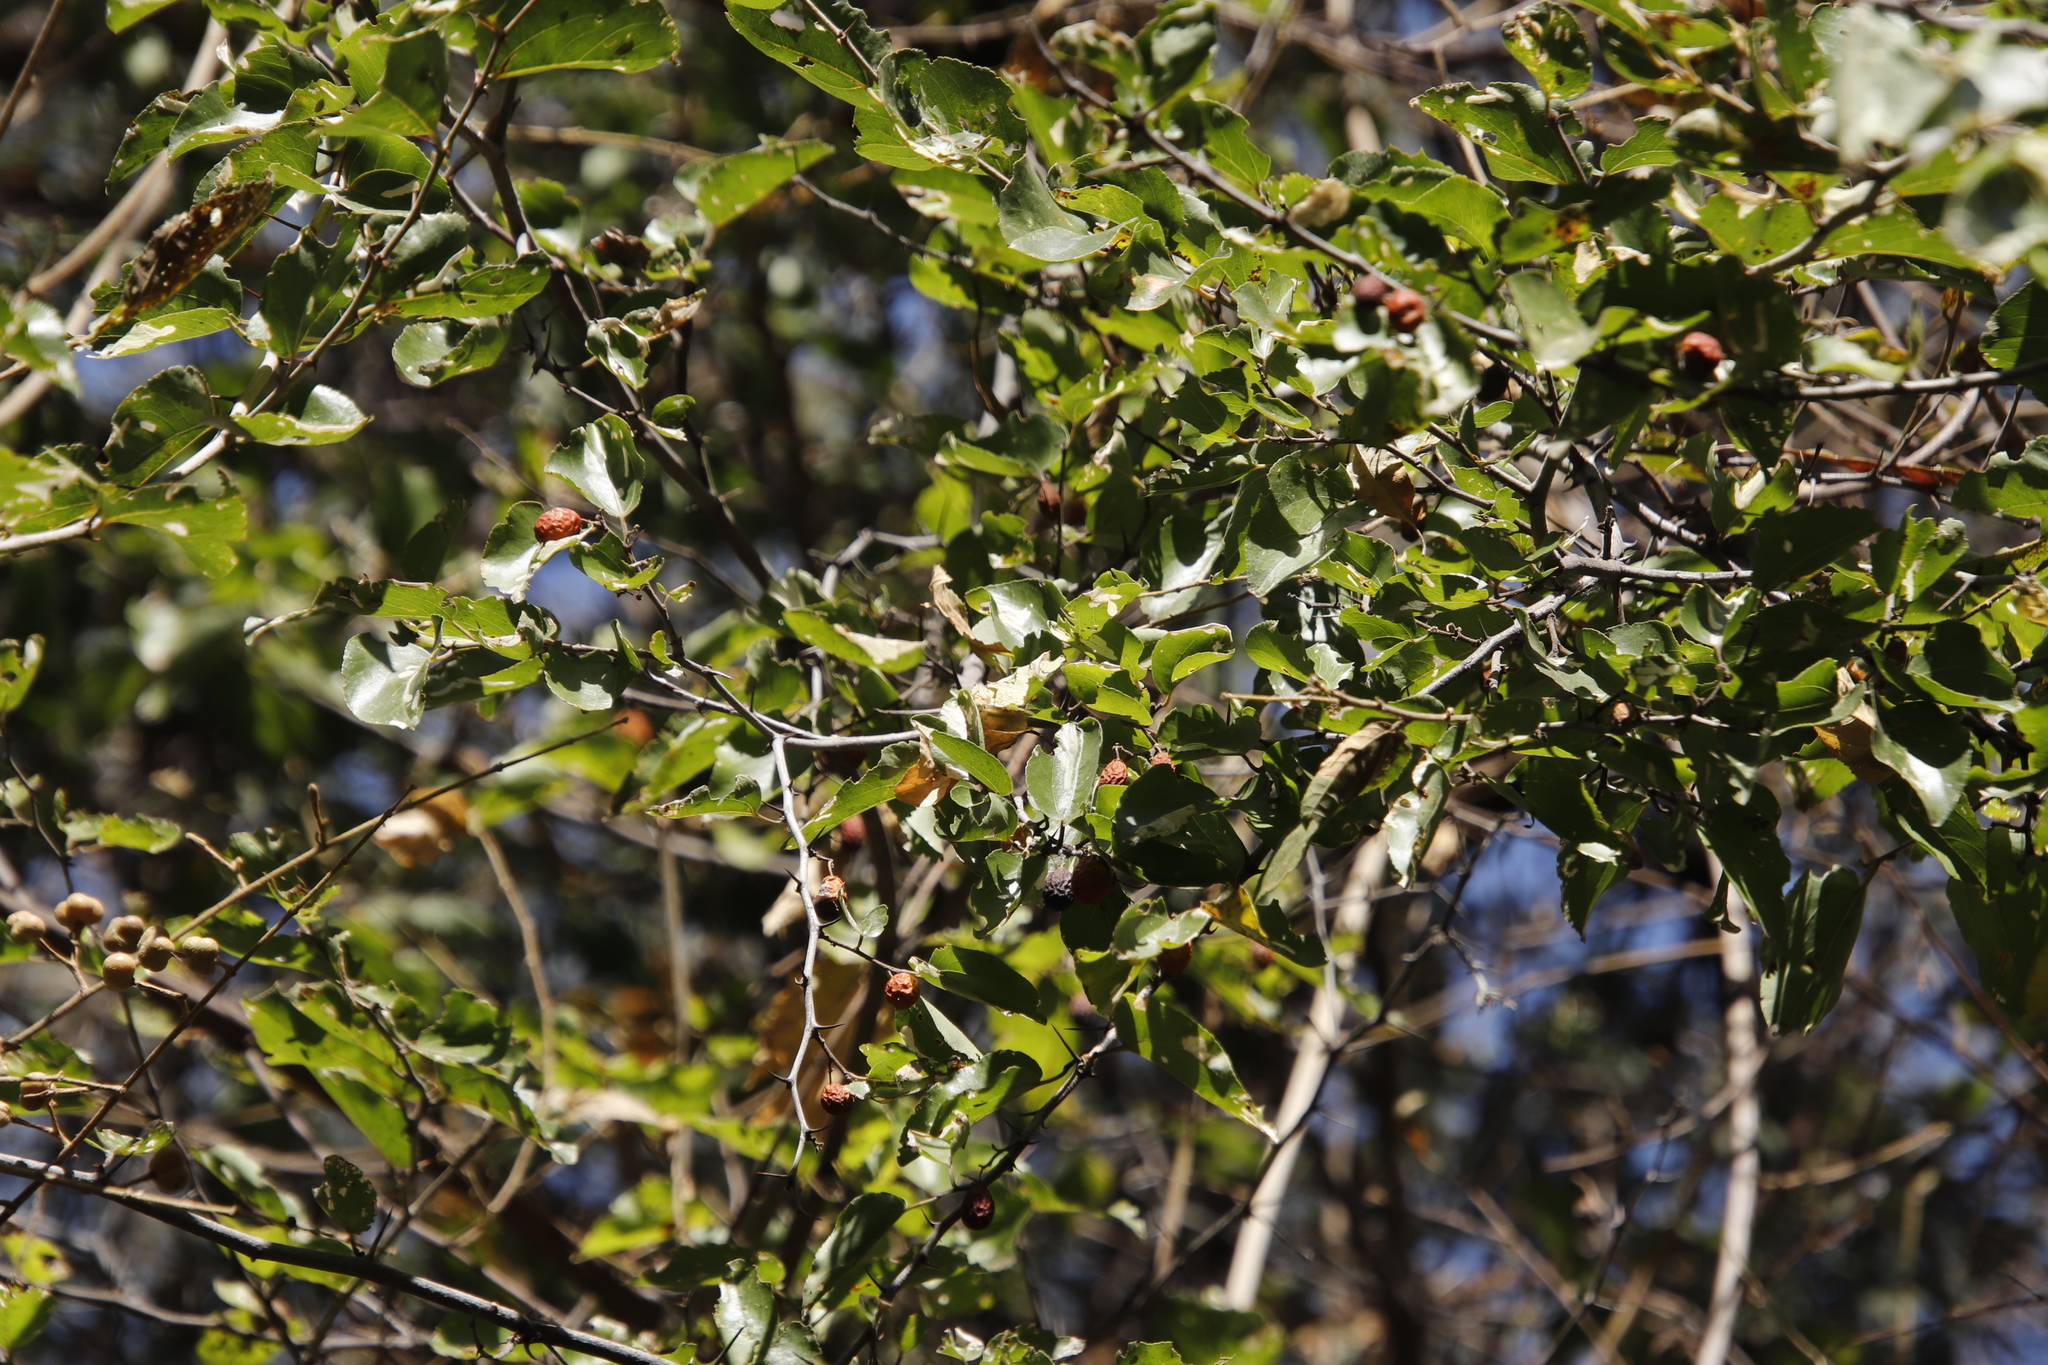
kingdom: Plantae
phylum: Tracheophyta
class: Magnoliopsida
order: Rosales
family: Rhamnaceae
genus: Ziziphus
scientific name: Ziziphus mucronata
